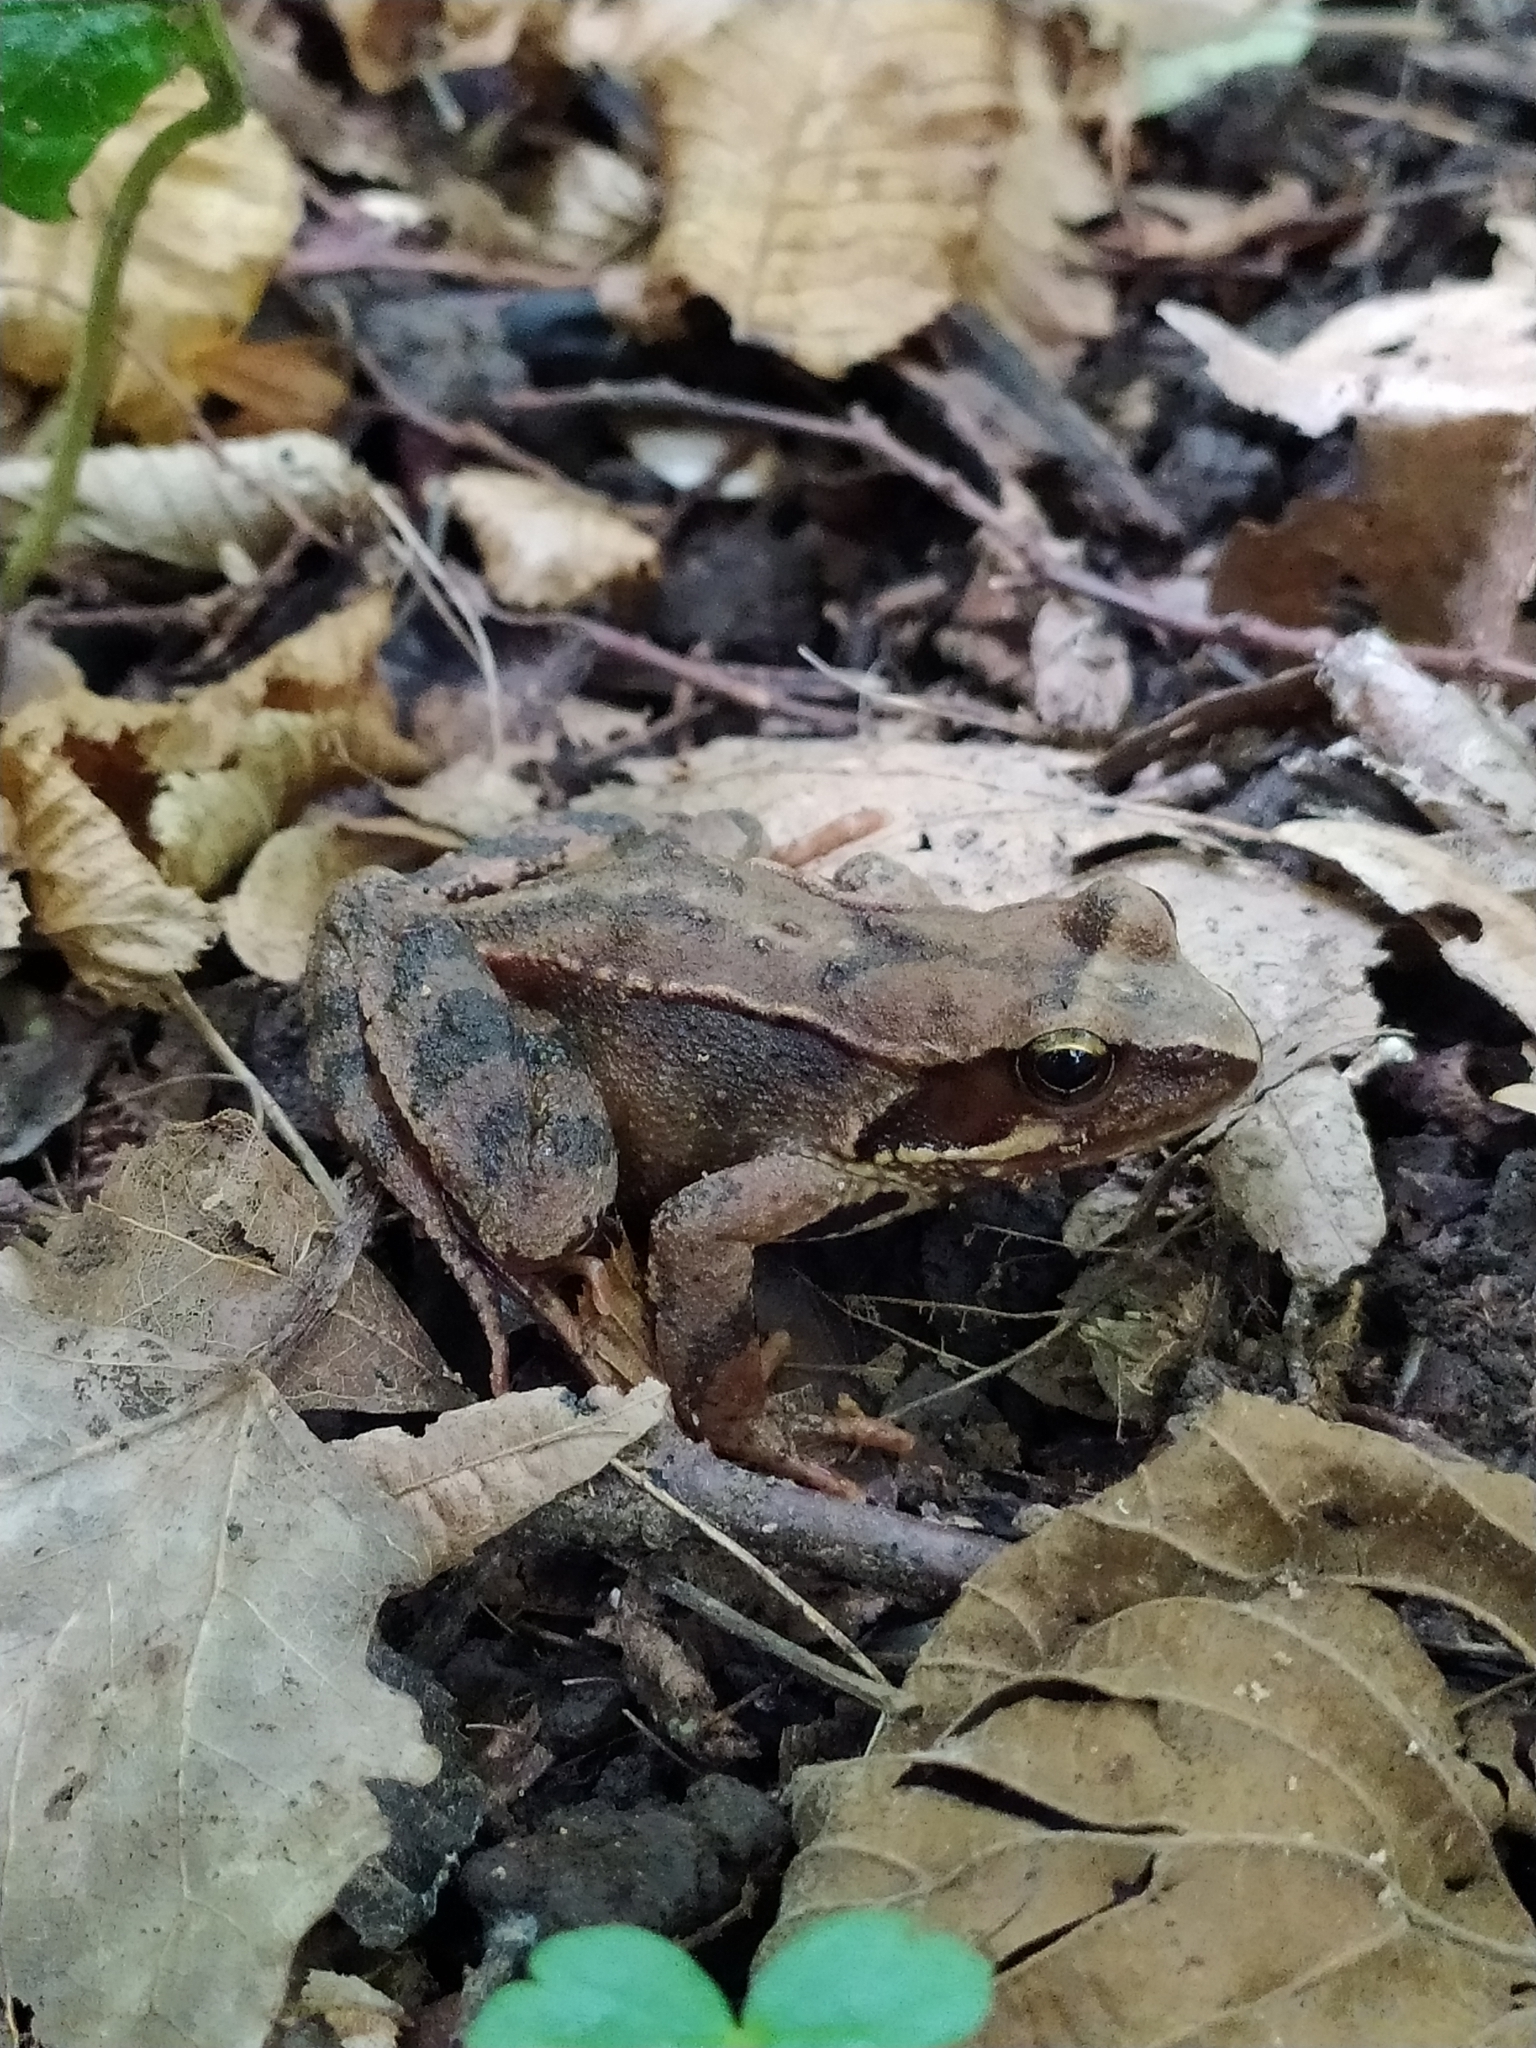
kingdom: Animalia
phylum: Chordata
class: Amphibia
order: Anura
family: Ranidae
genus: Rana
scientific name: Rana dalmatina
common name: Agile frog
